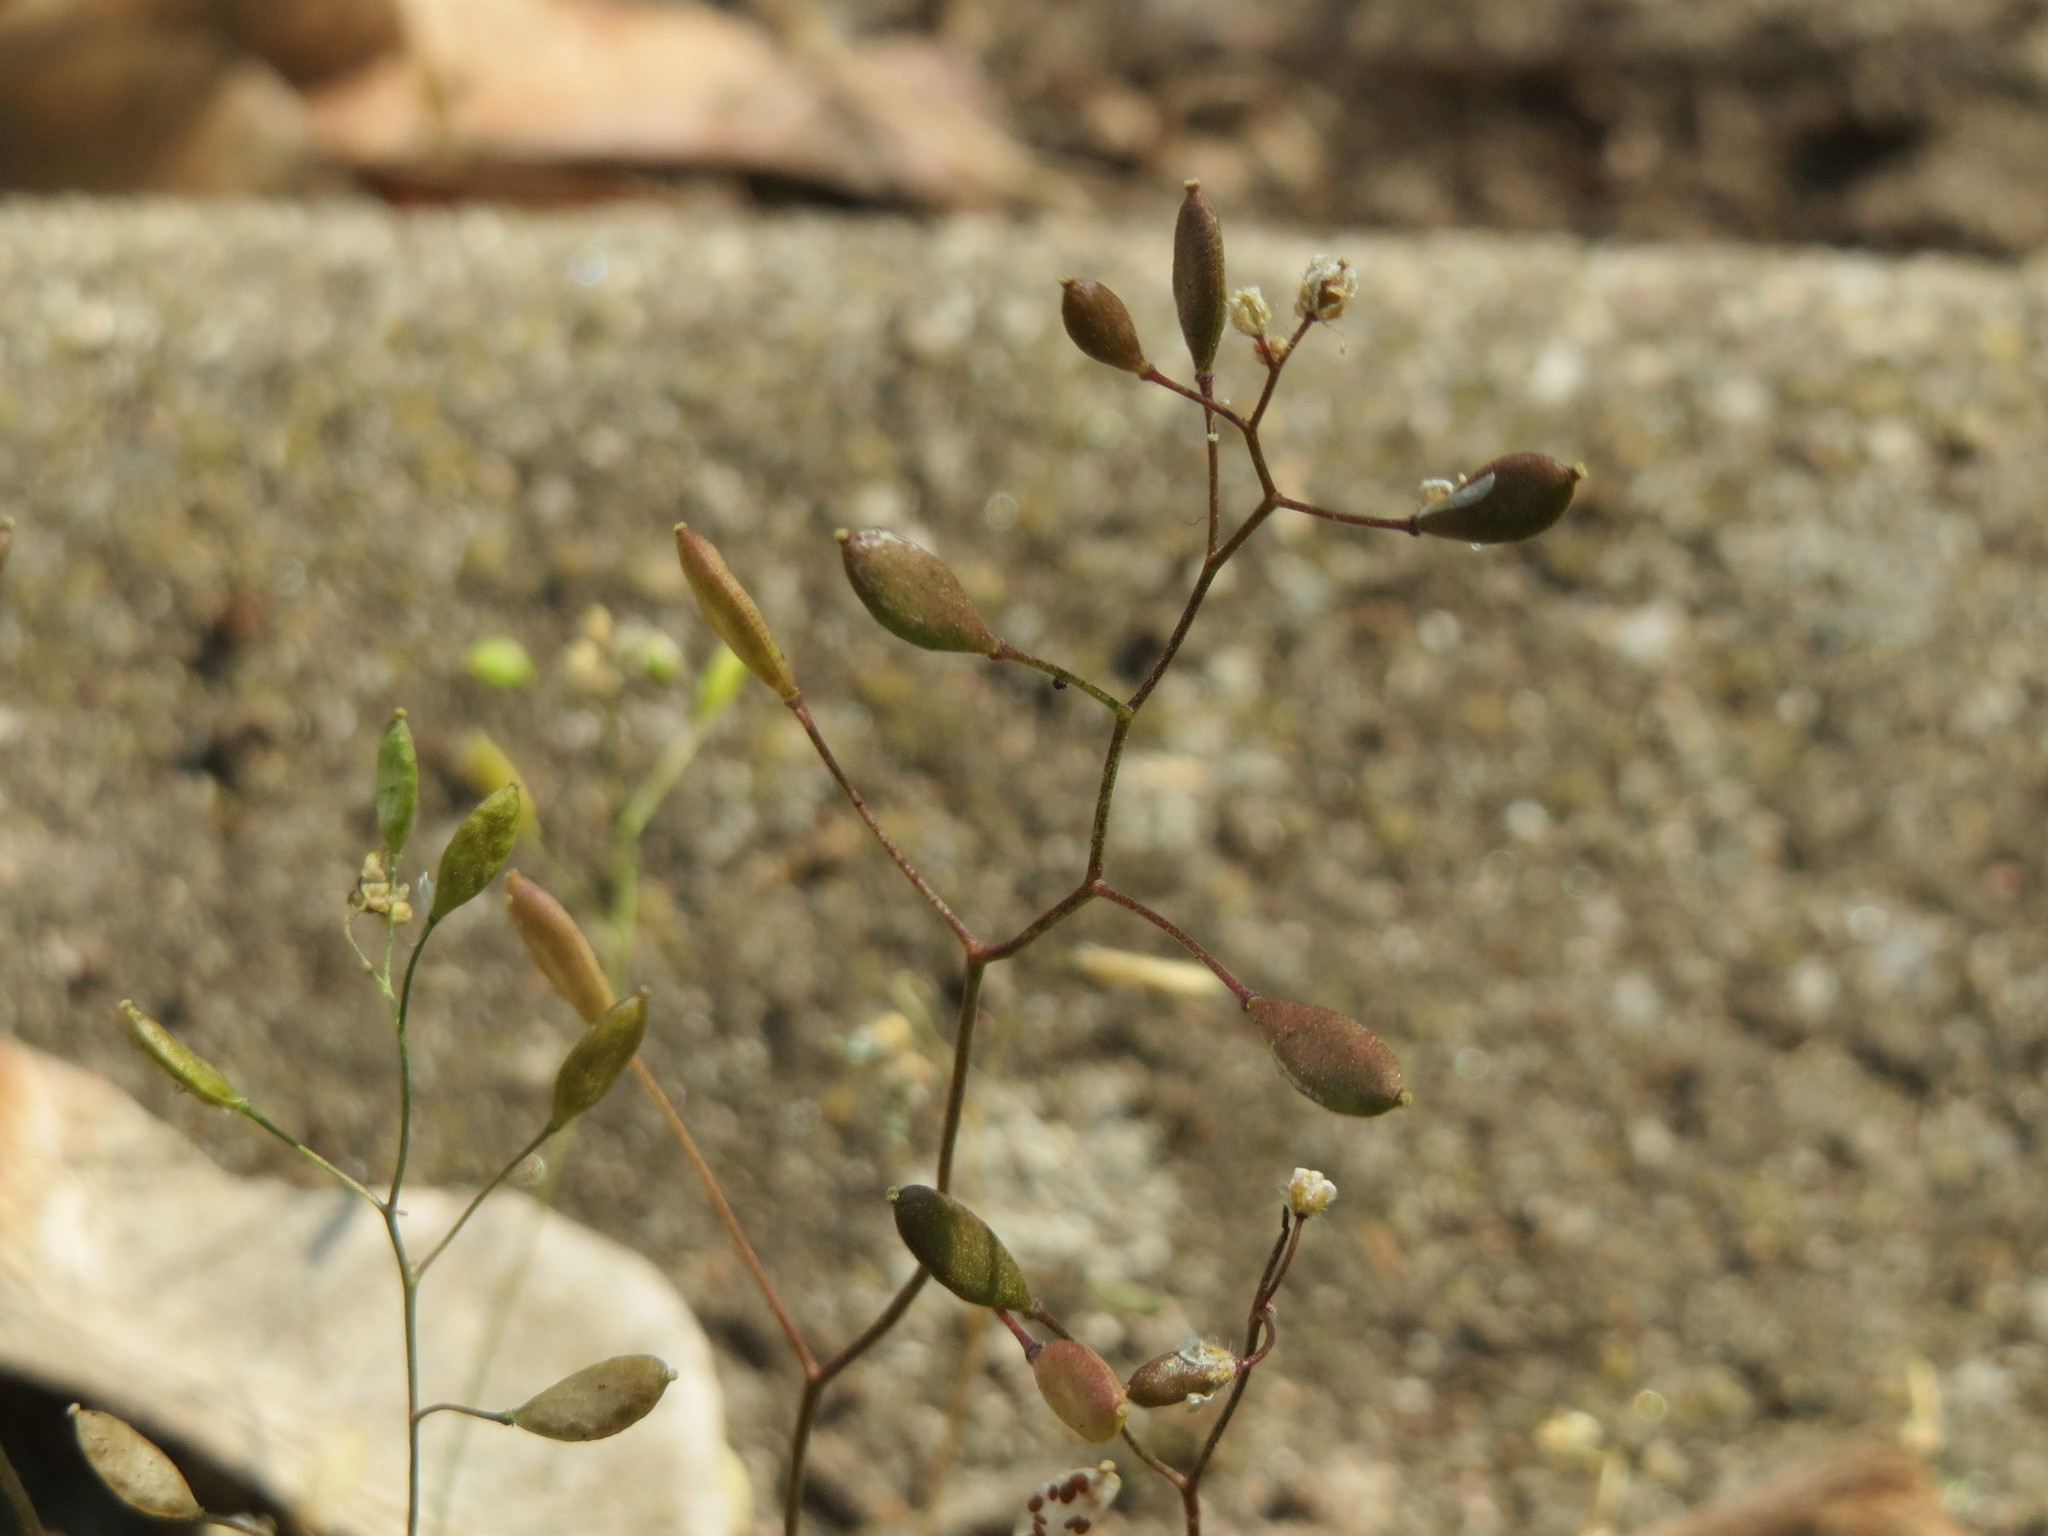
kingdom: Plantae
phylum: Tracheophyta
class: Magnoliopsida
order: Brassicales
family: Brassicaceae
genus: Draba
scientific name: Draba verna
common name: Spring draba
